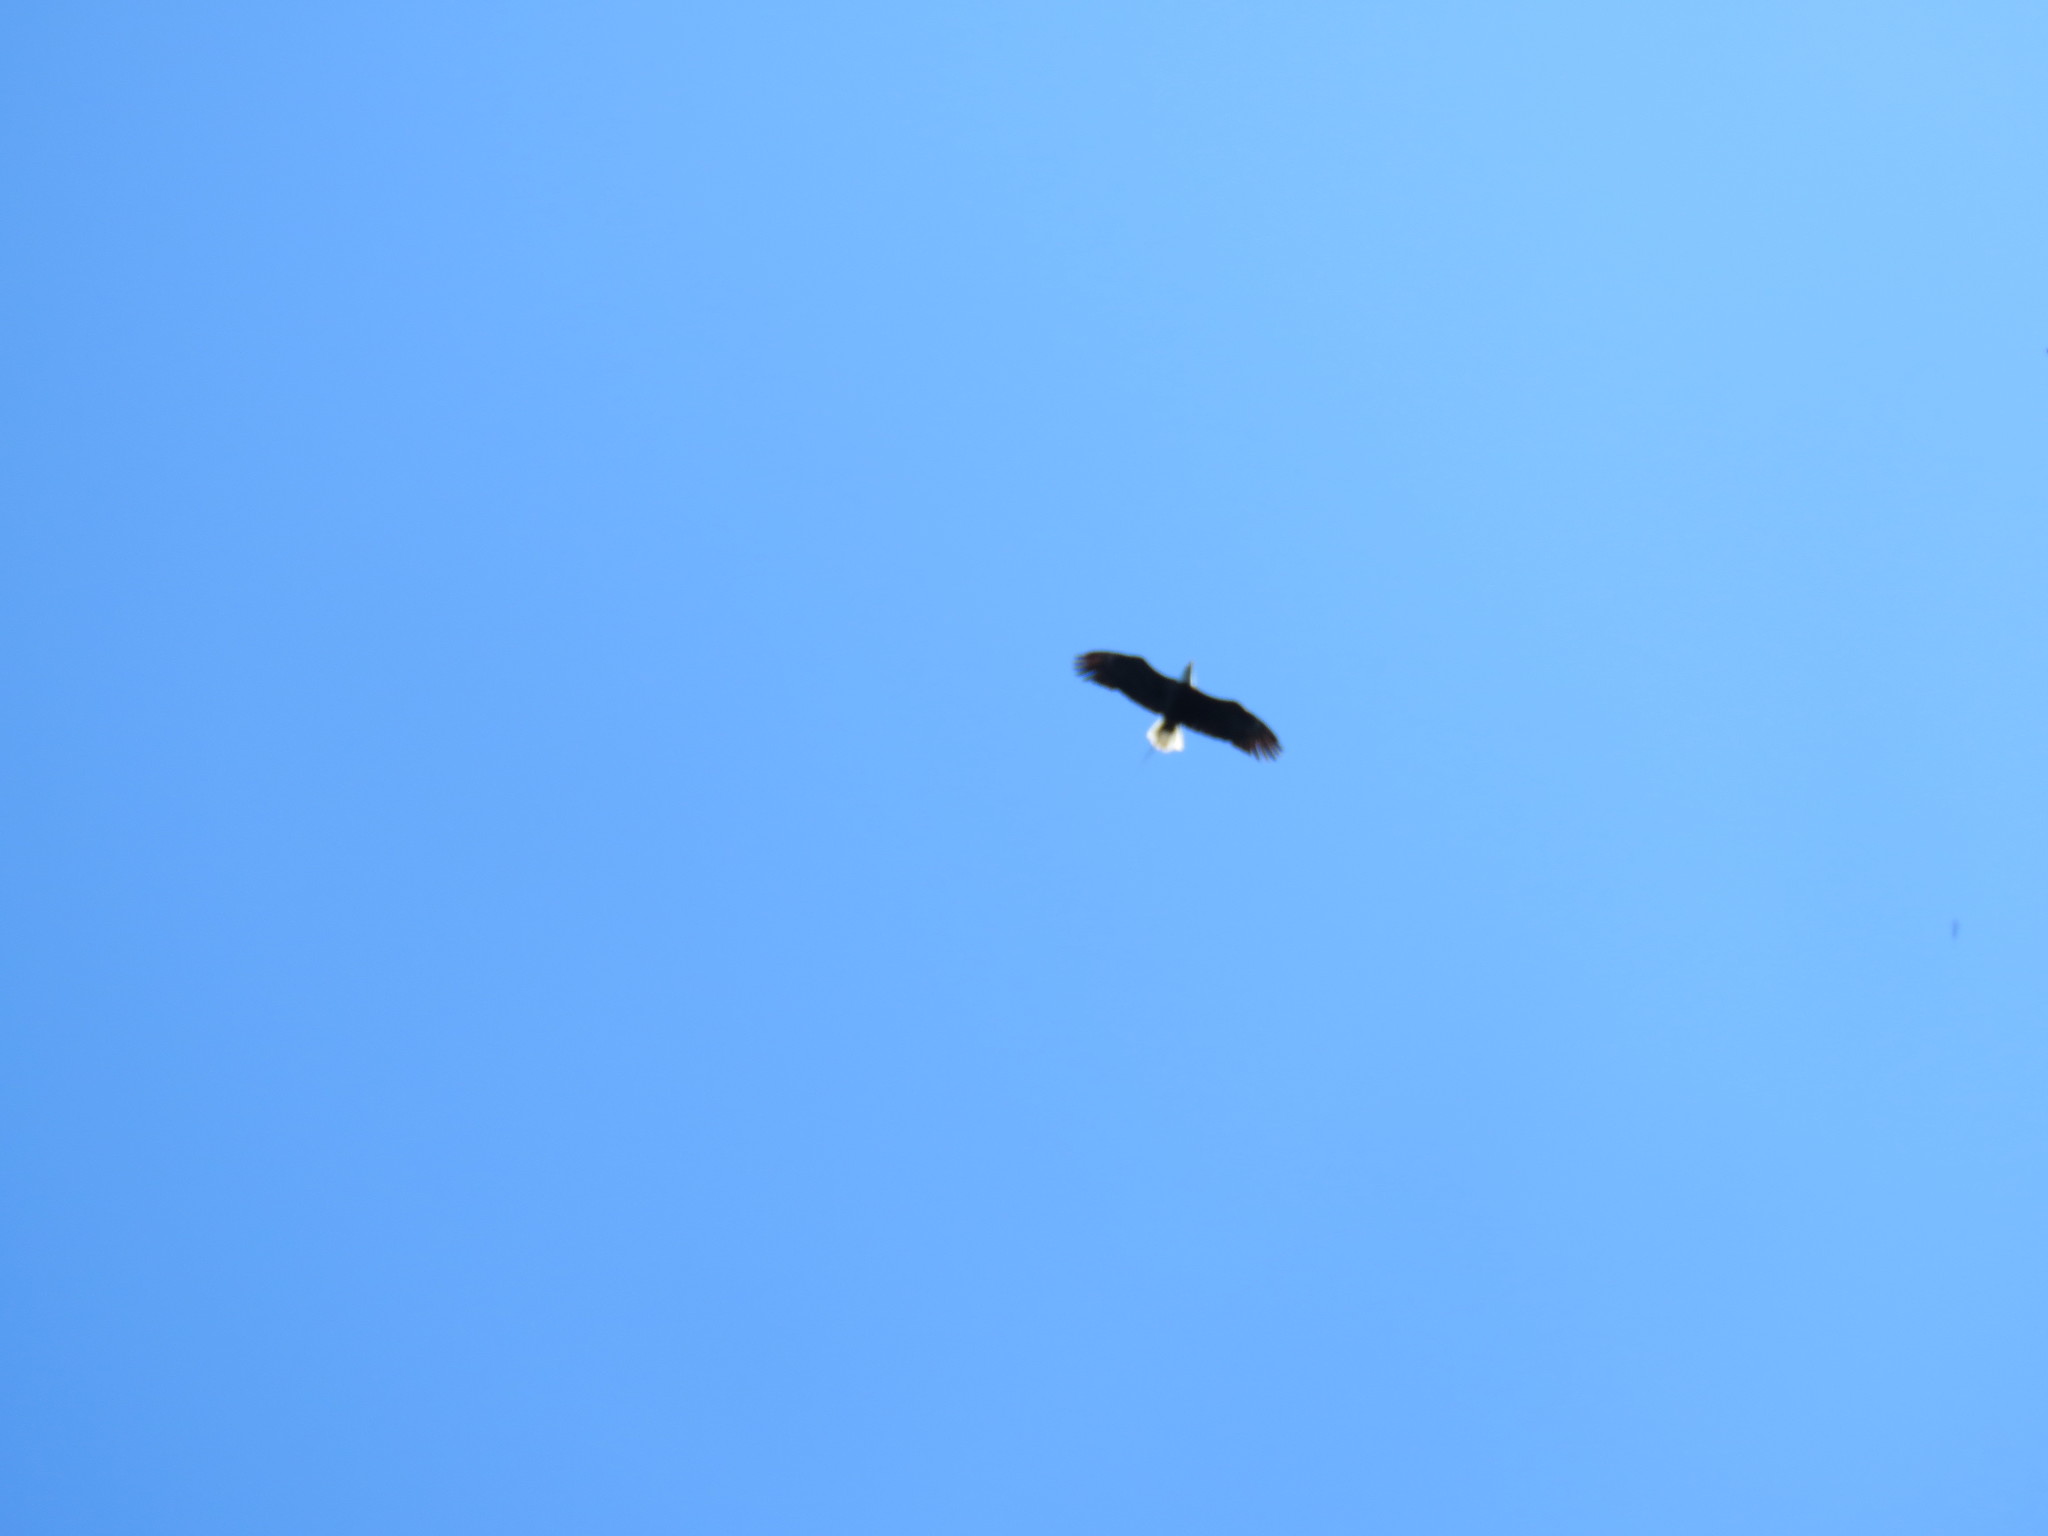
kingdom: Animalia
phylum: Chordata
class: Aves
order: Accipitriformes
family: Accipitridae
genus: Haliaeetus
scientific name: Haliaeetus leucocephalus
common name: Bald eagle
